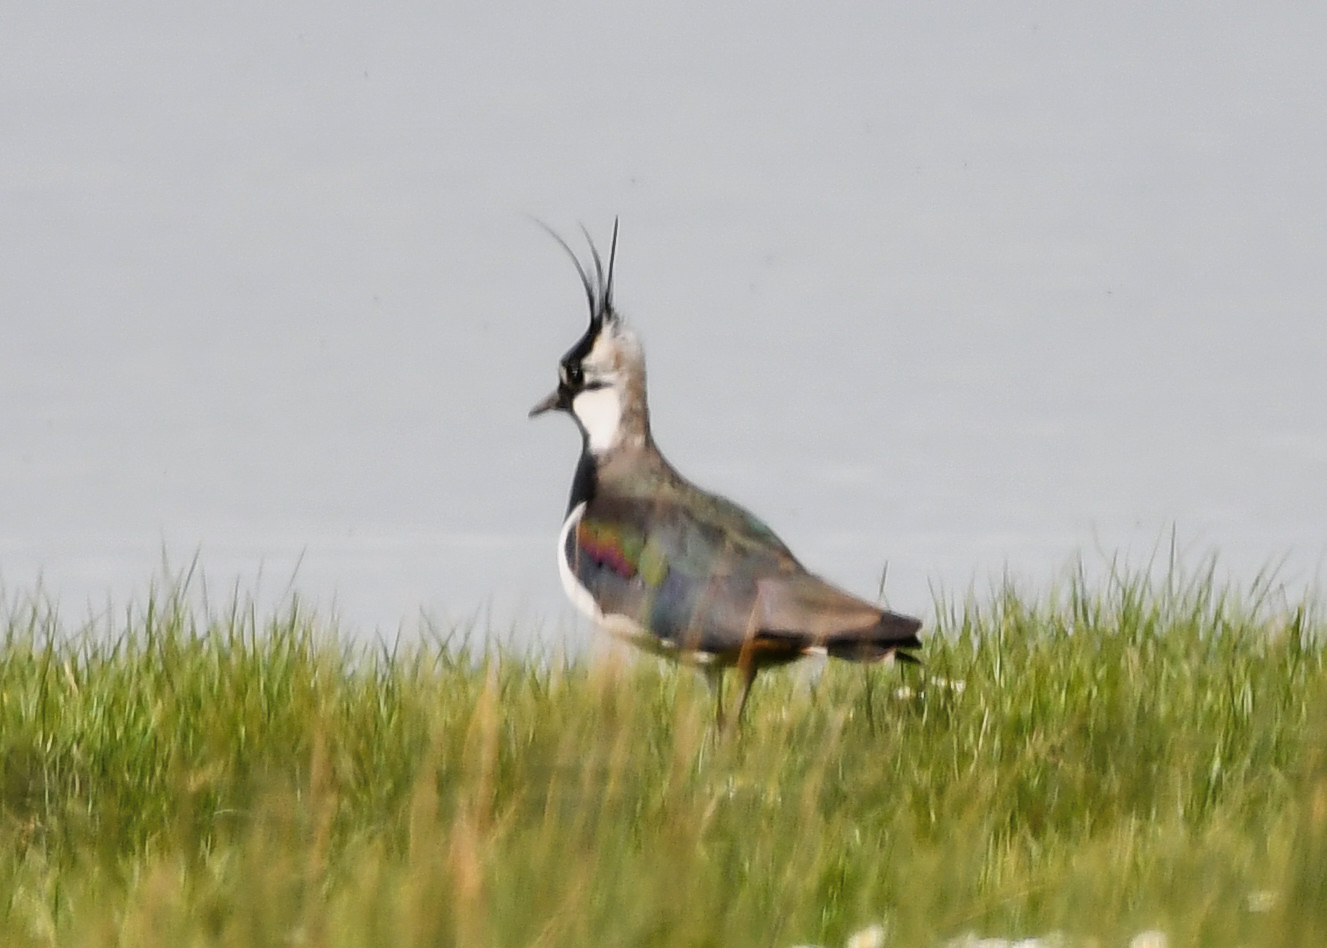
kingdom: Animalia
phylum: Chordata
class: Aves
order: Charadriiformes
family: Charadriidae
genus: Vanellus
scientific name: Vanellus vanellus
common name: Northern lapwing
